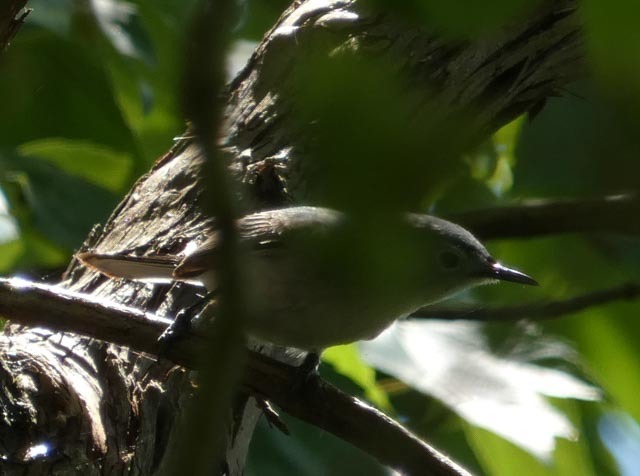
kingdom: Animalia
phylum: Chordata
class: Aves
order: Passeriformes
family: Polioptilidae
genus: Polioptila
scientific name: Polioptila caerulea
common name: Blue-gray gnatcatcher
